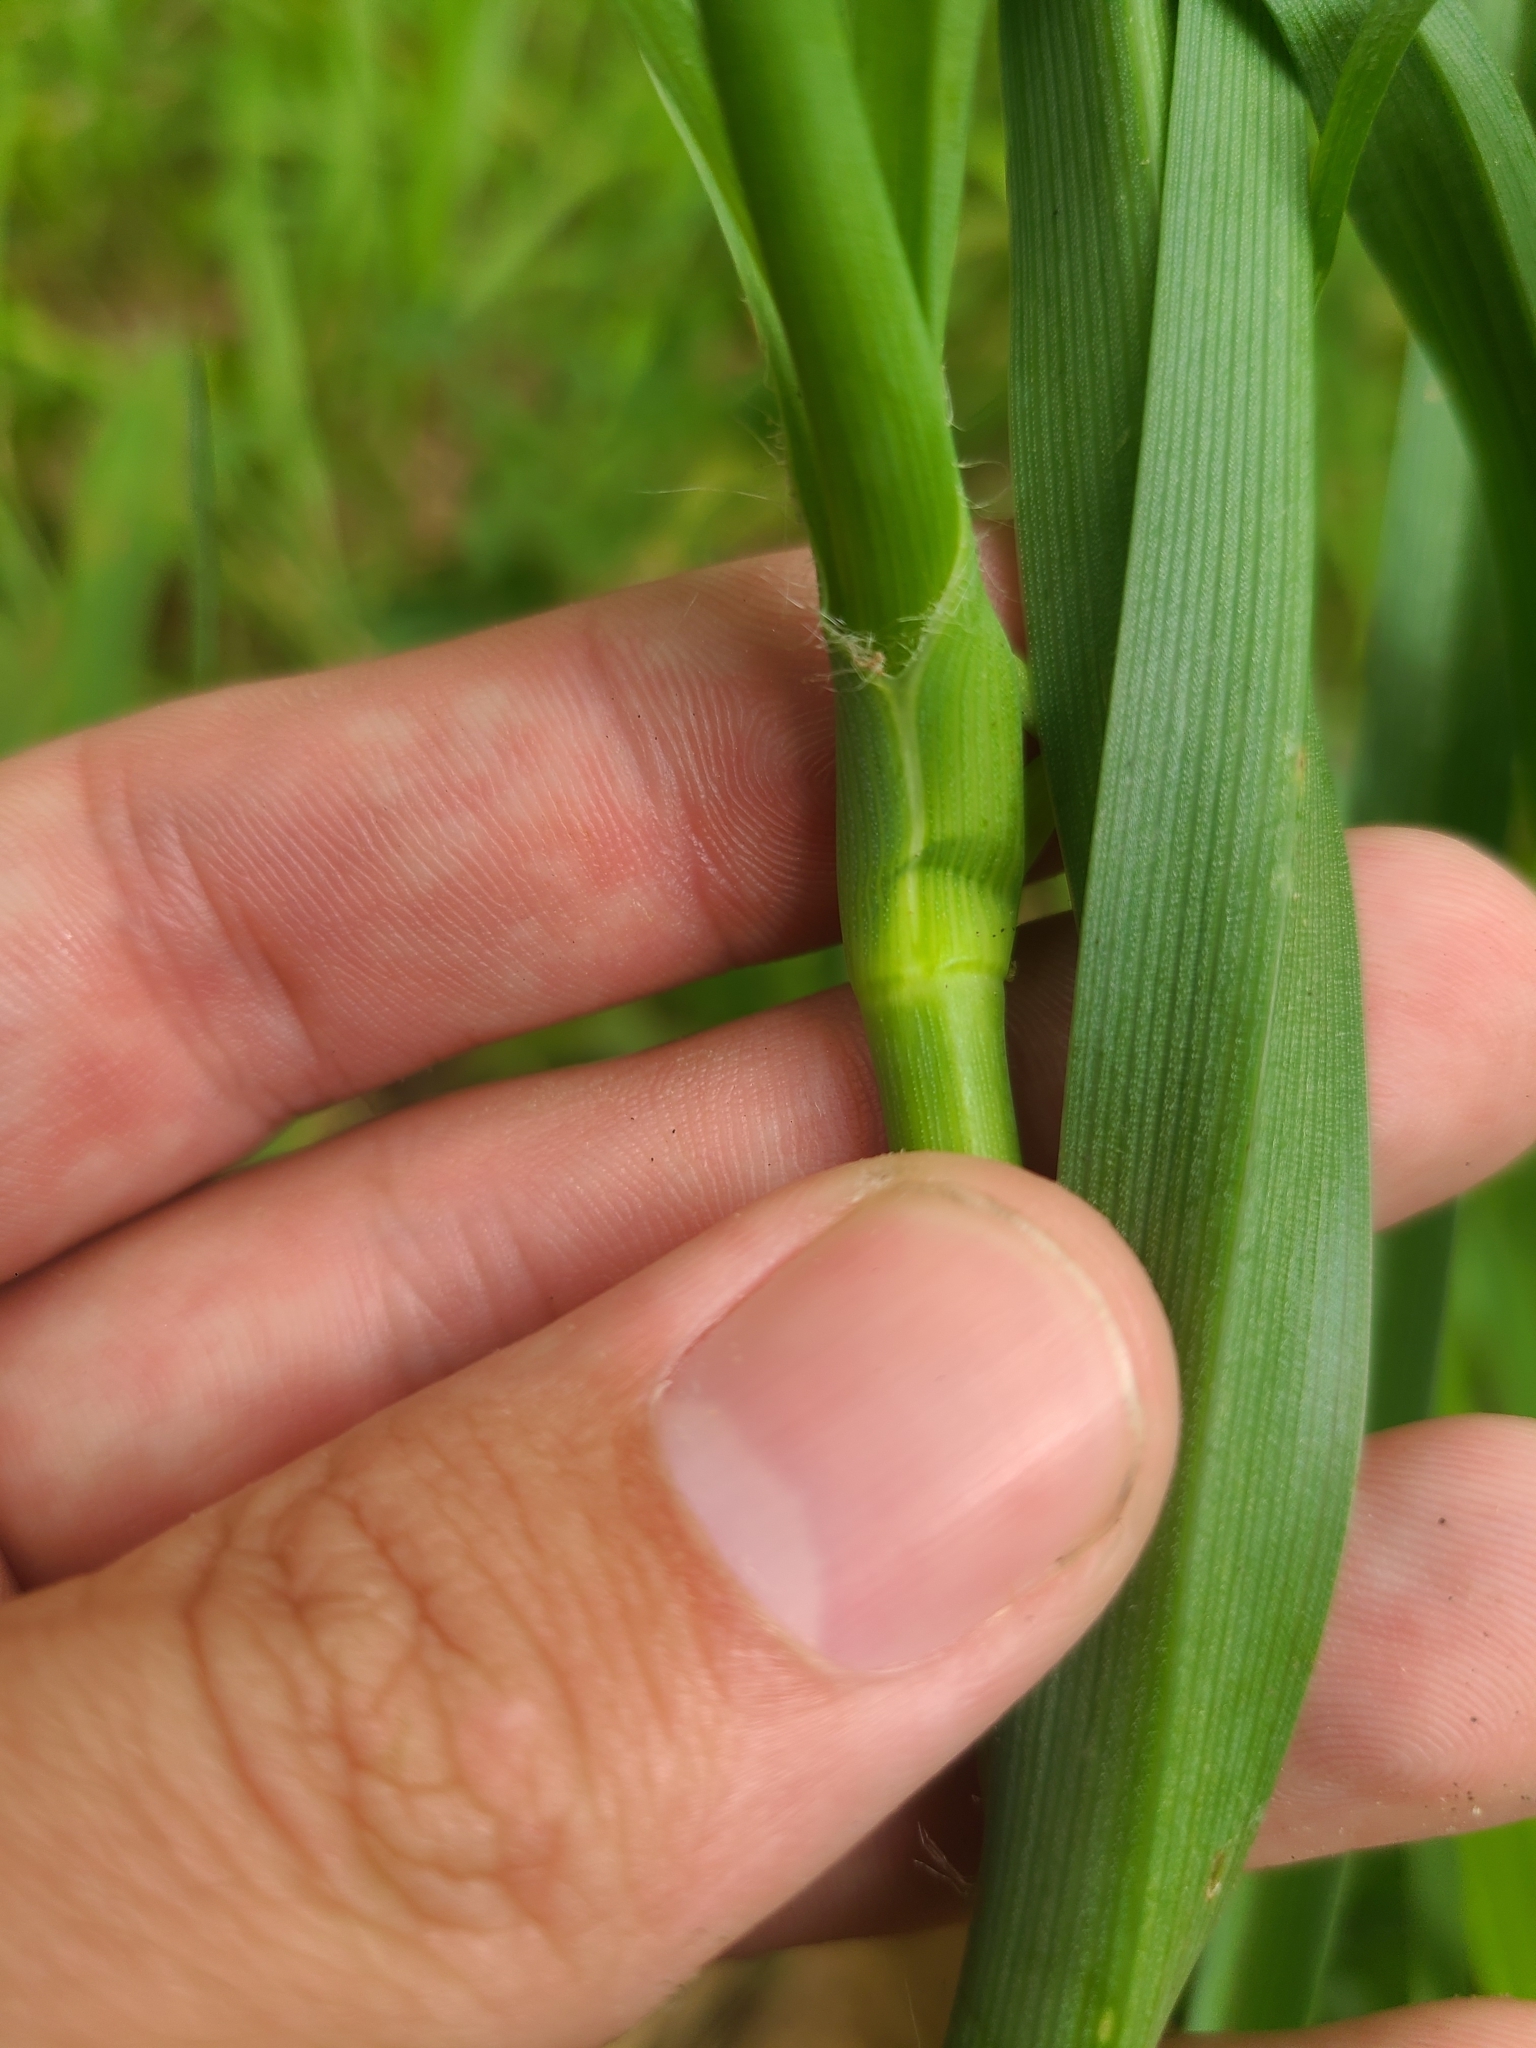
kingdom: Plantae
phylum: Tracheophyta
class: Liliopsida
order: Commelinales
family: Commelinaceae
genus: Tradescantia
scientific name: Tradescantia ohiensis
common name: Ohio spiderwort
